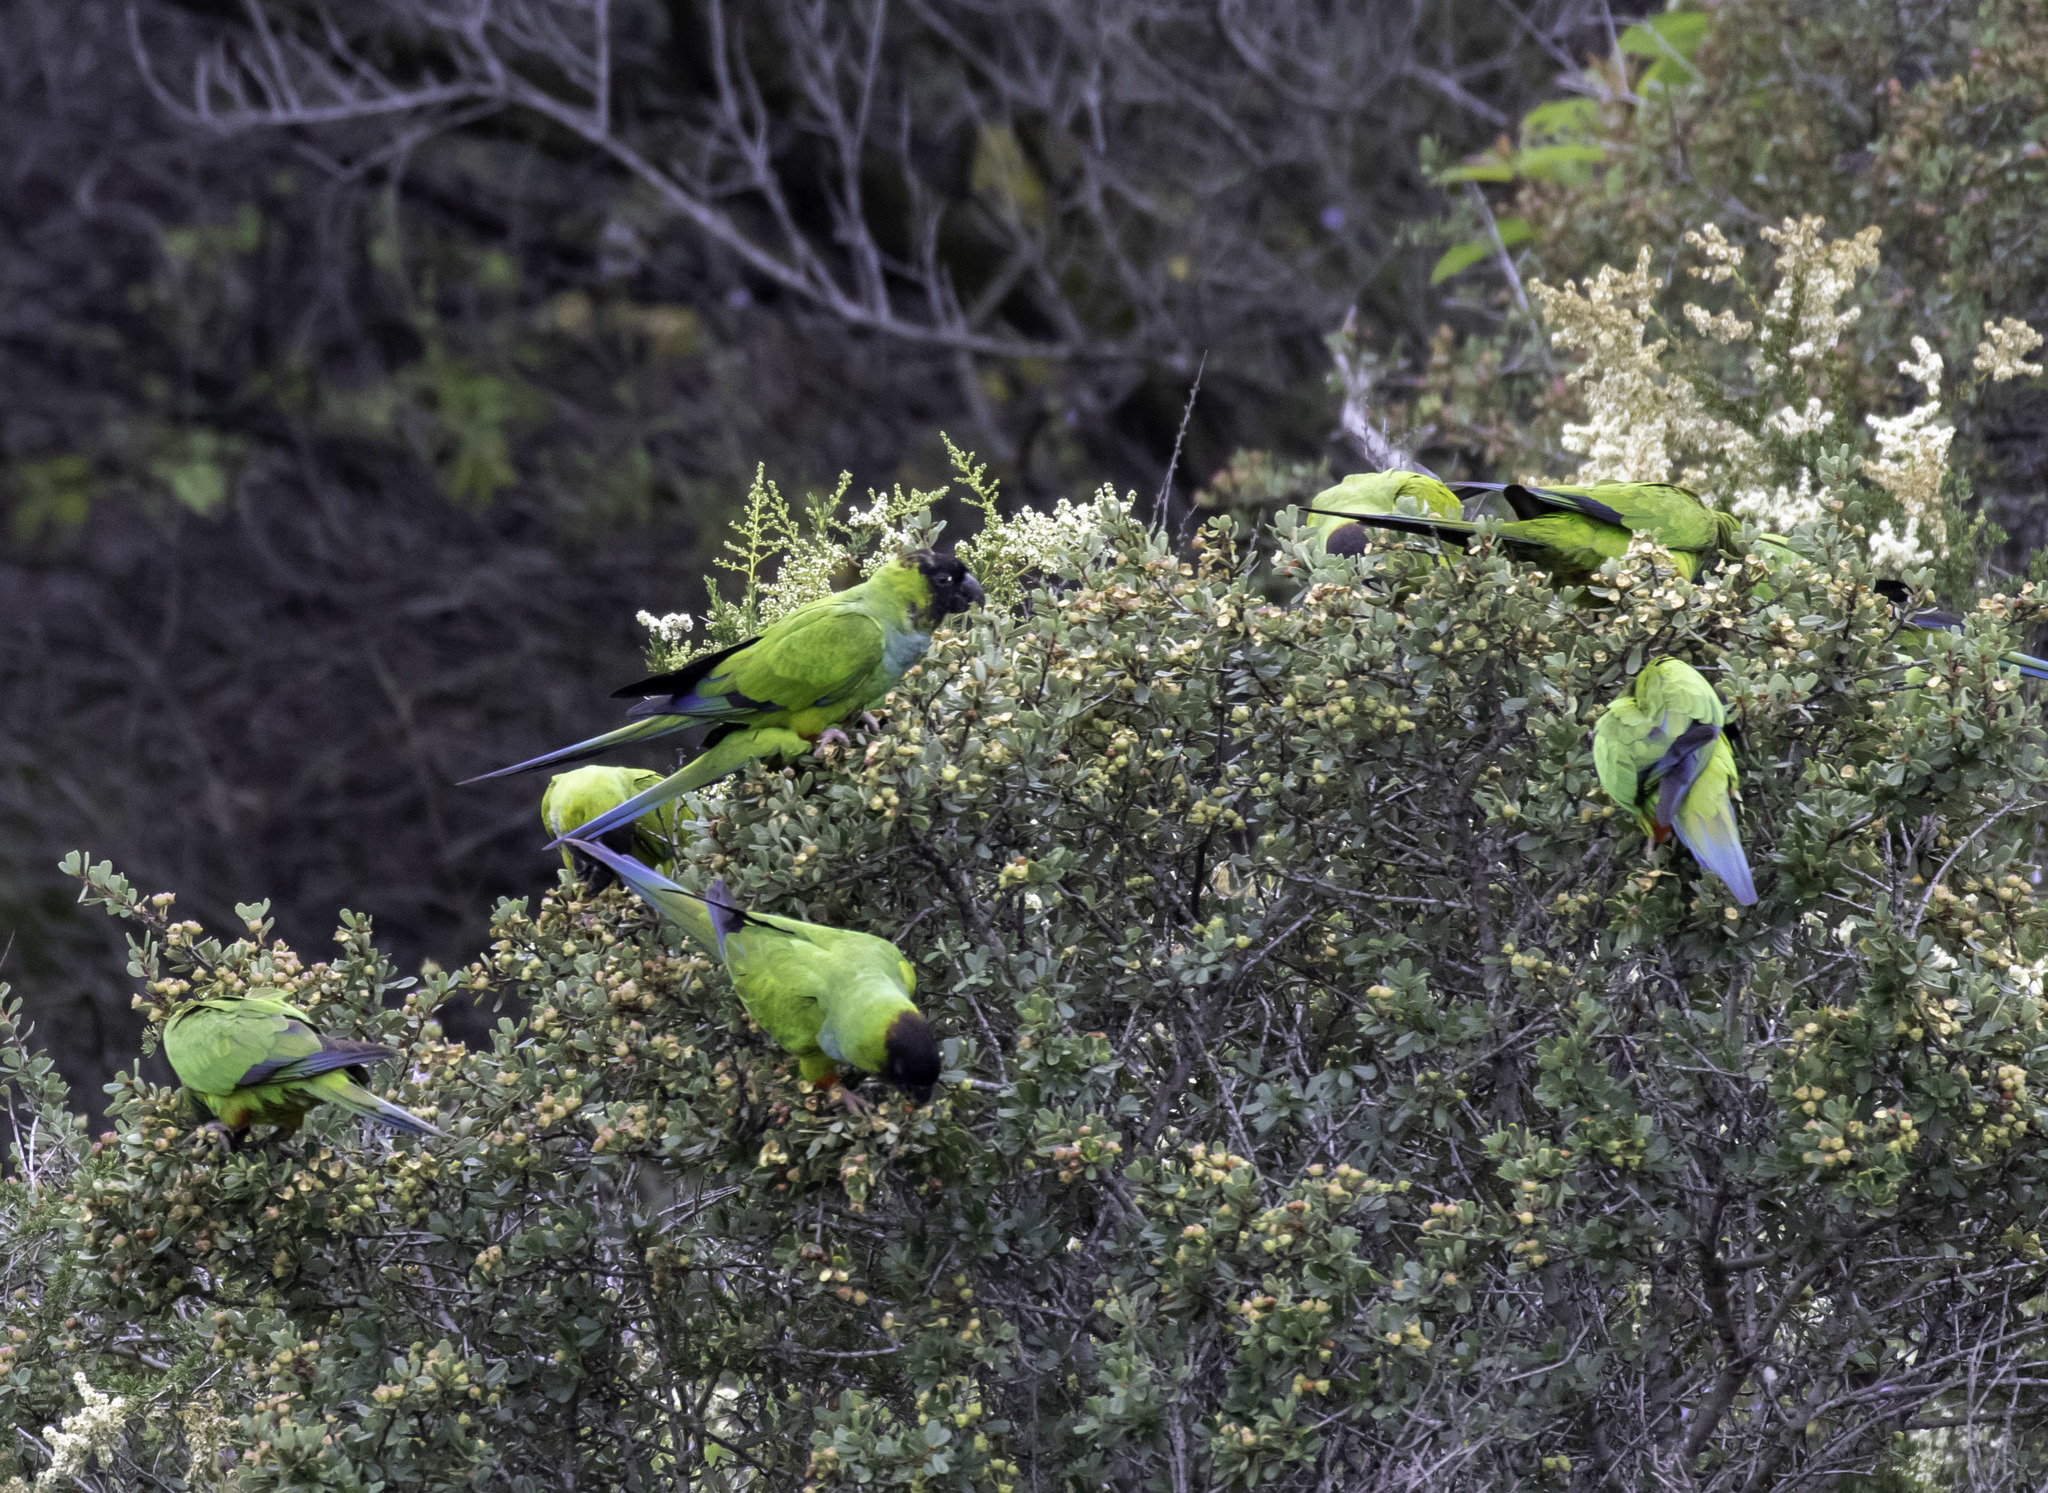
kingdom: Animalia
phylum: Chordata
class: Aves
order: Psittaciformes
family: Psittacidae
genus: Nandayus
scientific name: Nandayus nenday
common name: Nanday parakeet
